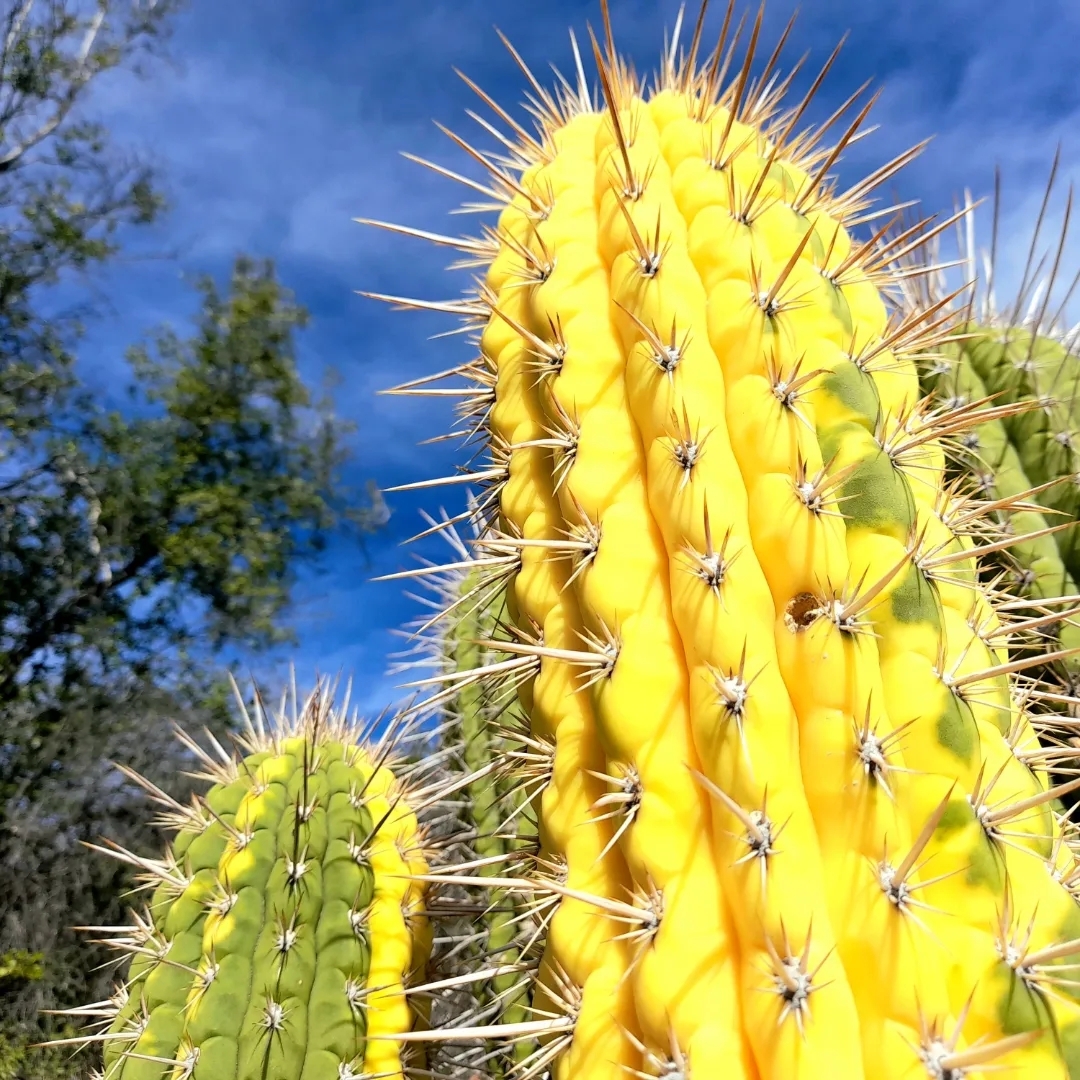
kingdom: Plantae
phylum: Tracheophyta
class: Magnoliopsida
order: Caryophyllales
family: Cactaceae
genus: Leucostele
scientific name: Leucostele chiloensis
